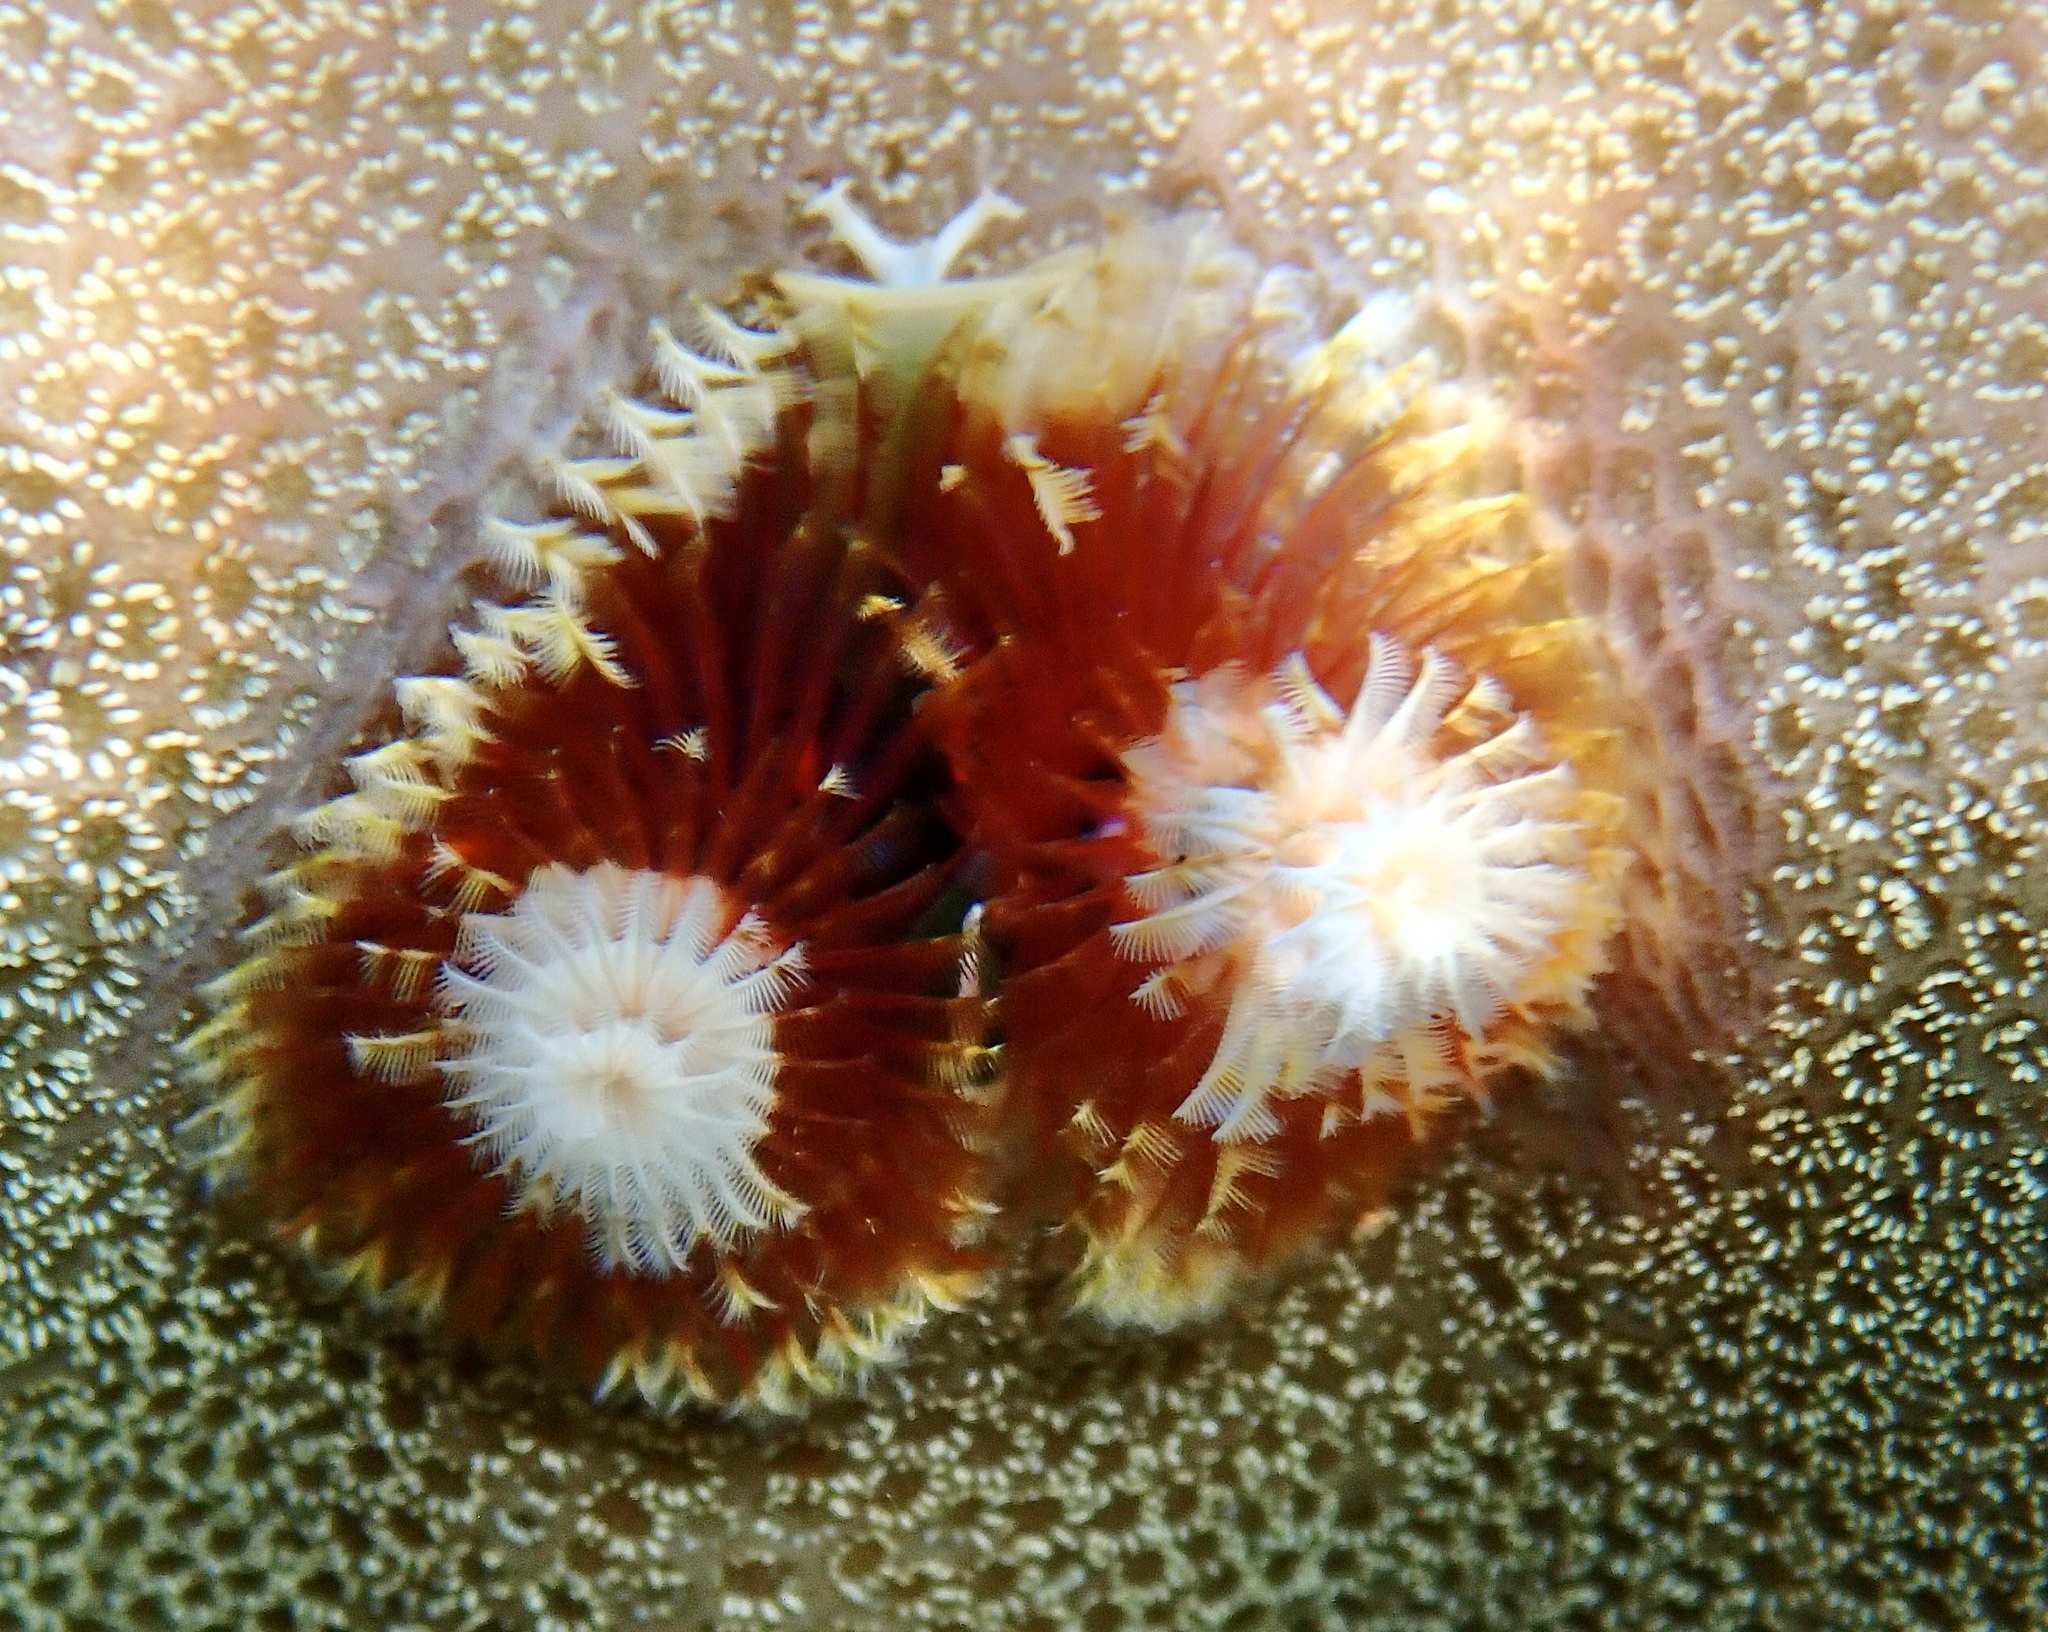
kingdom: Animalia
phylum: Annelida
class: Polychaeta
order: Sabellida
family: Serpulidae
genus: Spirobranchus
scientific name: Spirobranchus
